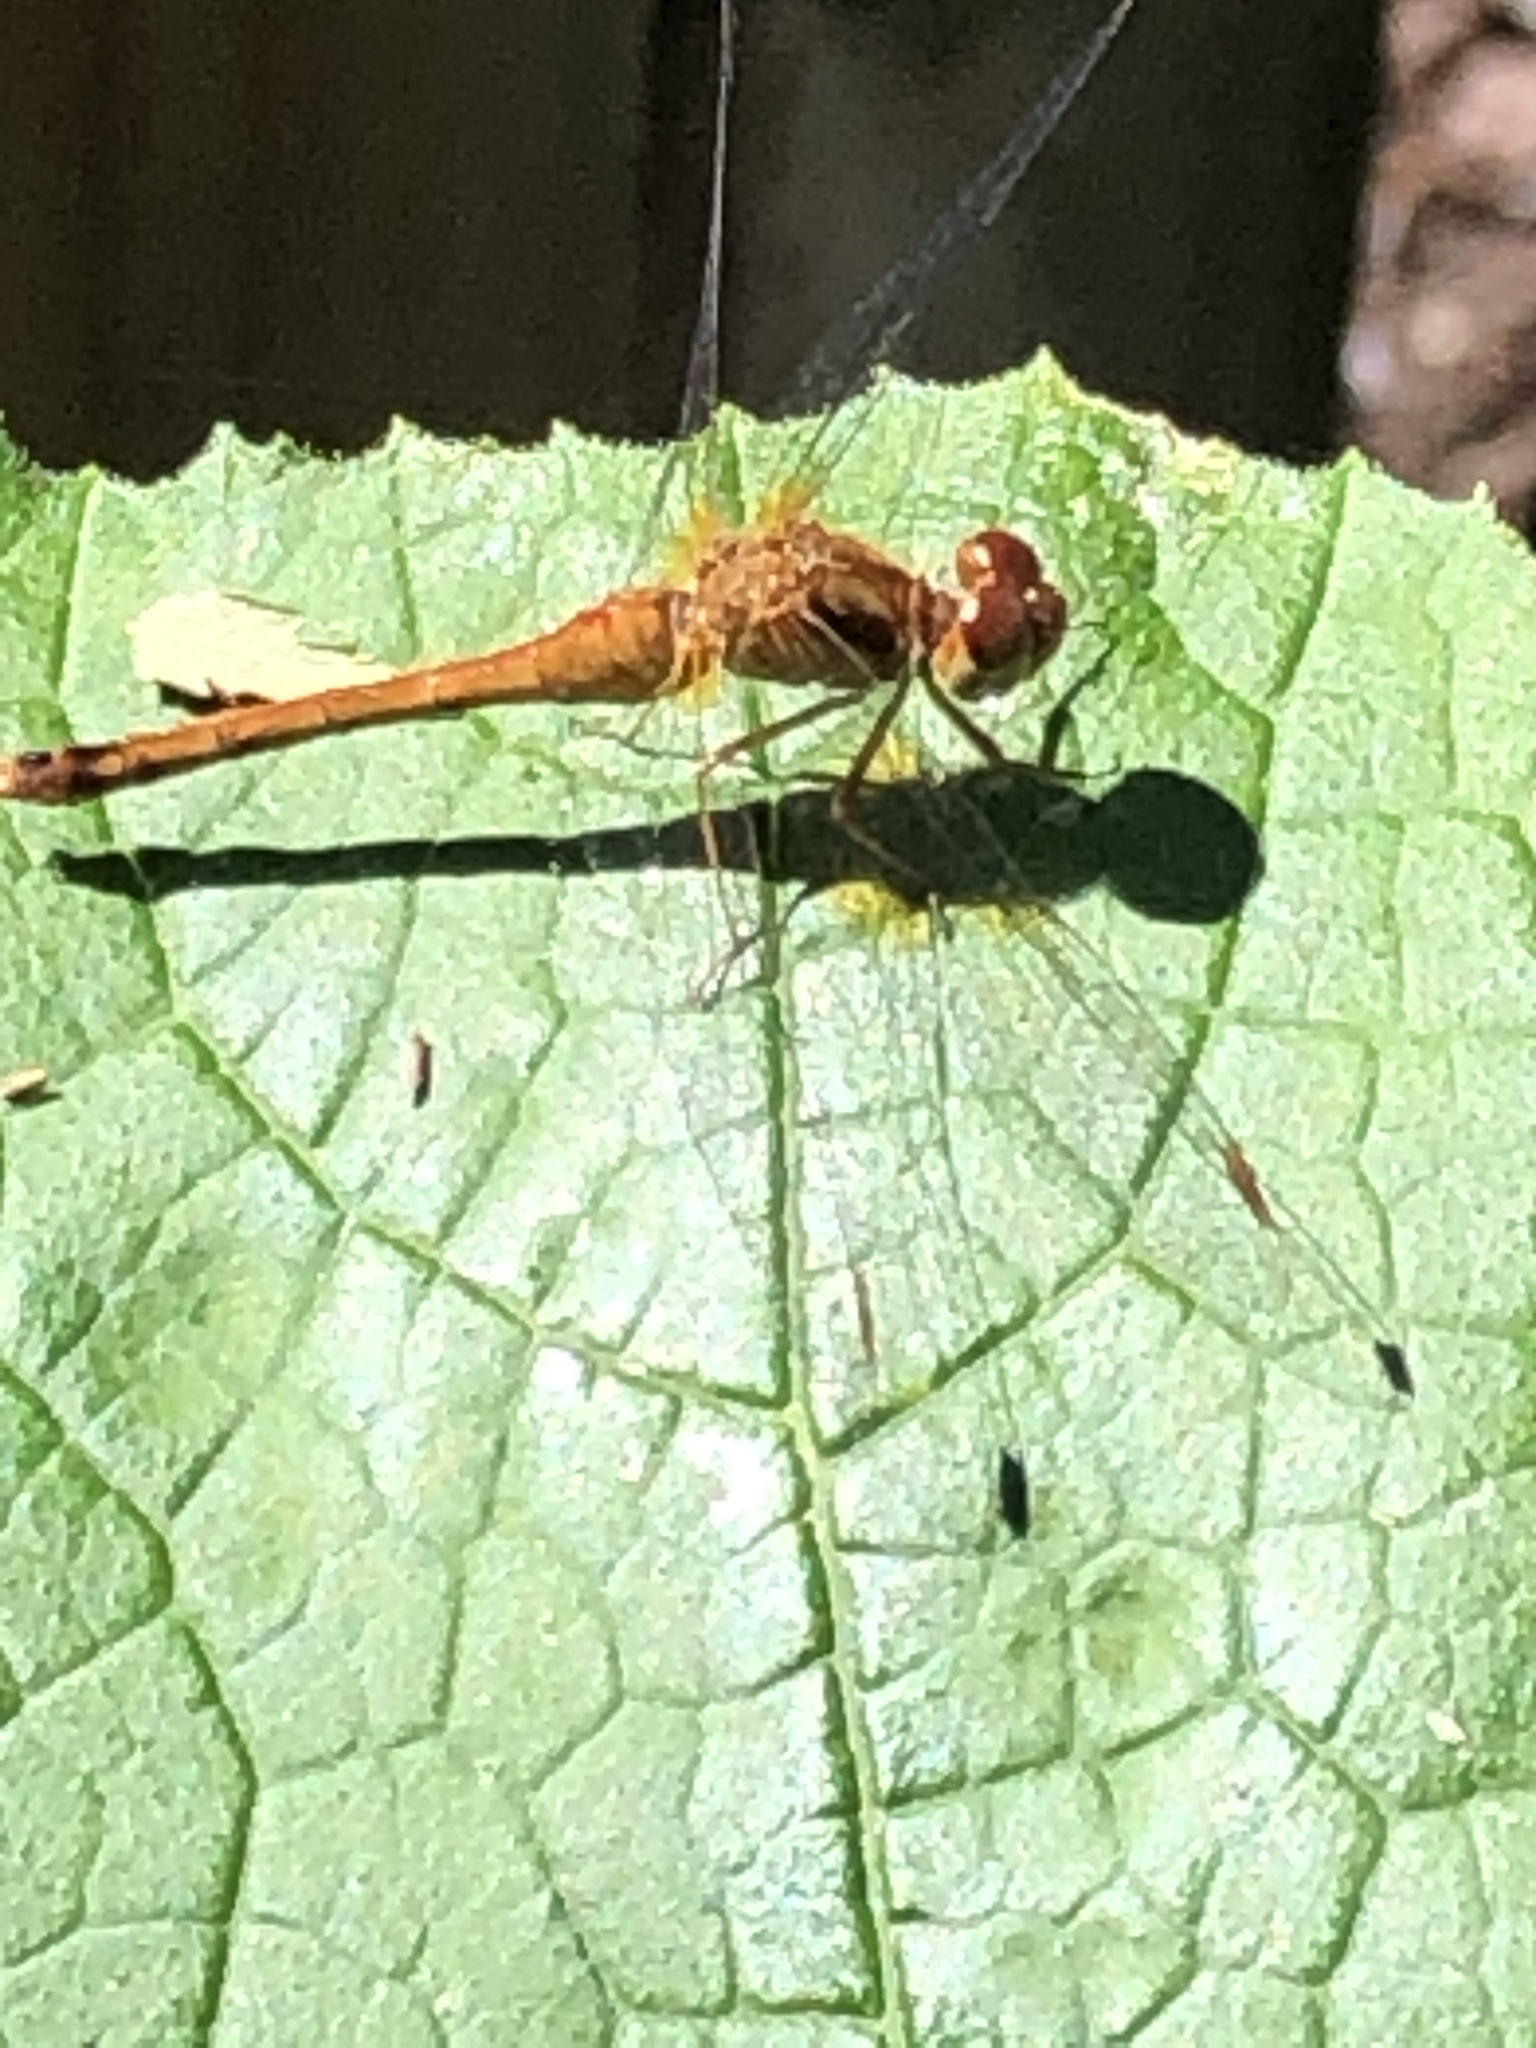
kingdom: Animalia
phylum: Arthropoda
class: Insecta
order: Odonata
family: Libellulidae
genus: Sympetrum
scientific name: Sympetrum vicinum
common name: Autumn meadowhawk
